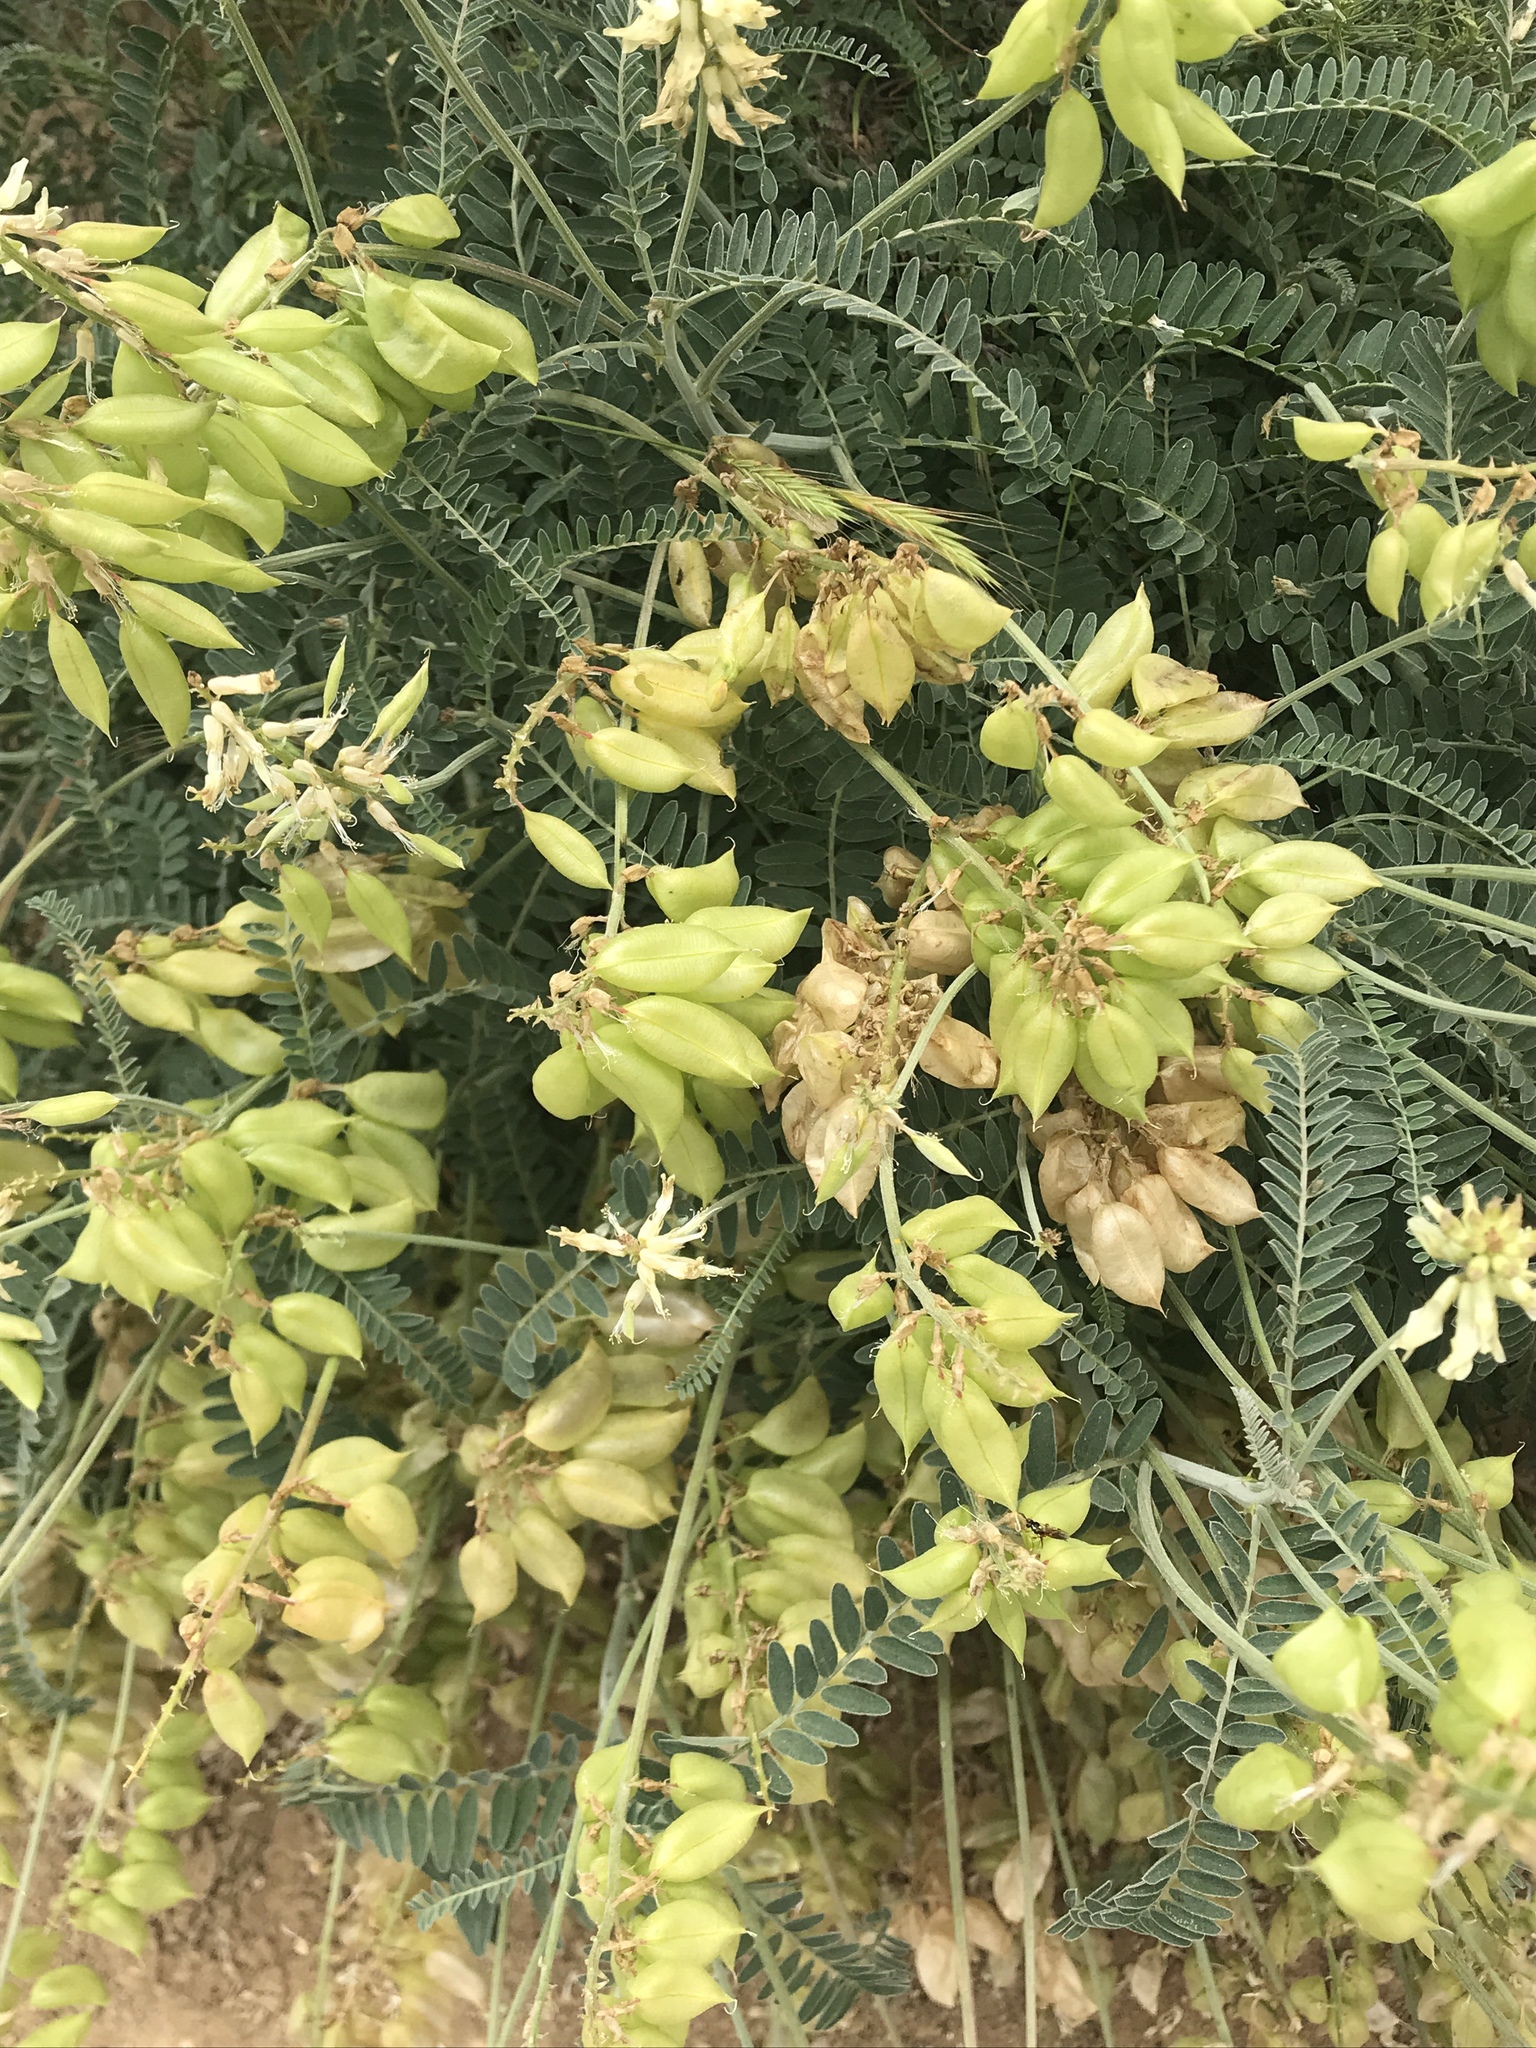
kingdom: Plantae
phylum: Tracheophyta
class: Magnoliopsida
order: Fabales
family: Fabaceae
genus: Astragalus
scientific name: Astragalus trichopodus
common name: Santa barbara milk-vetch
